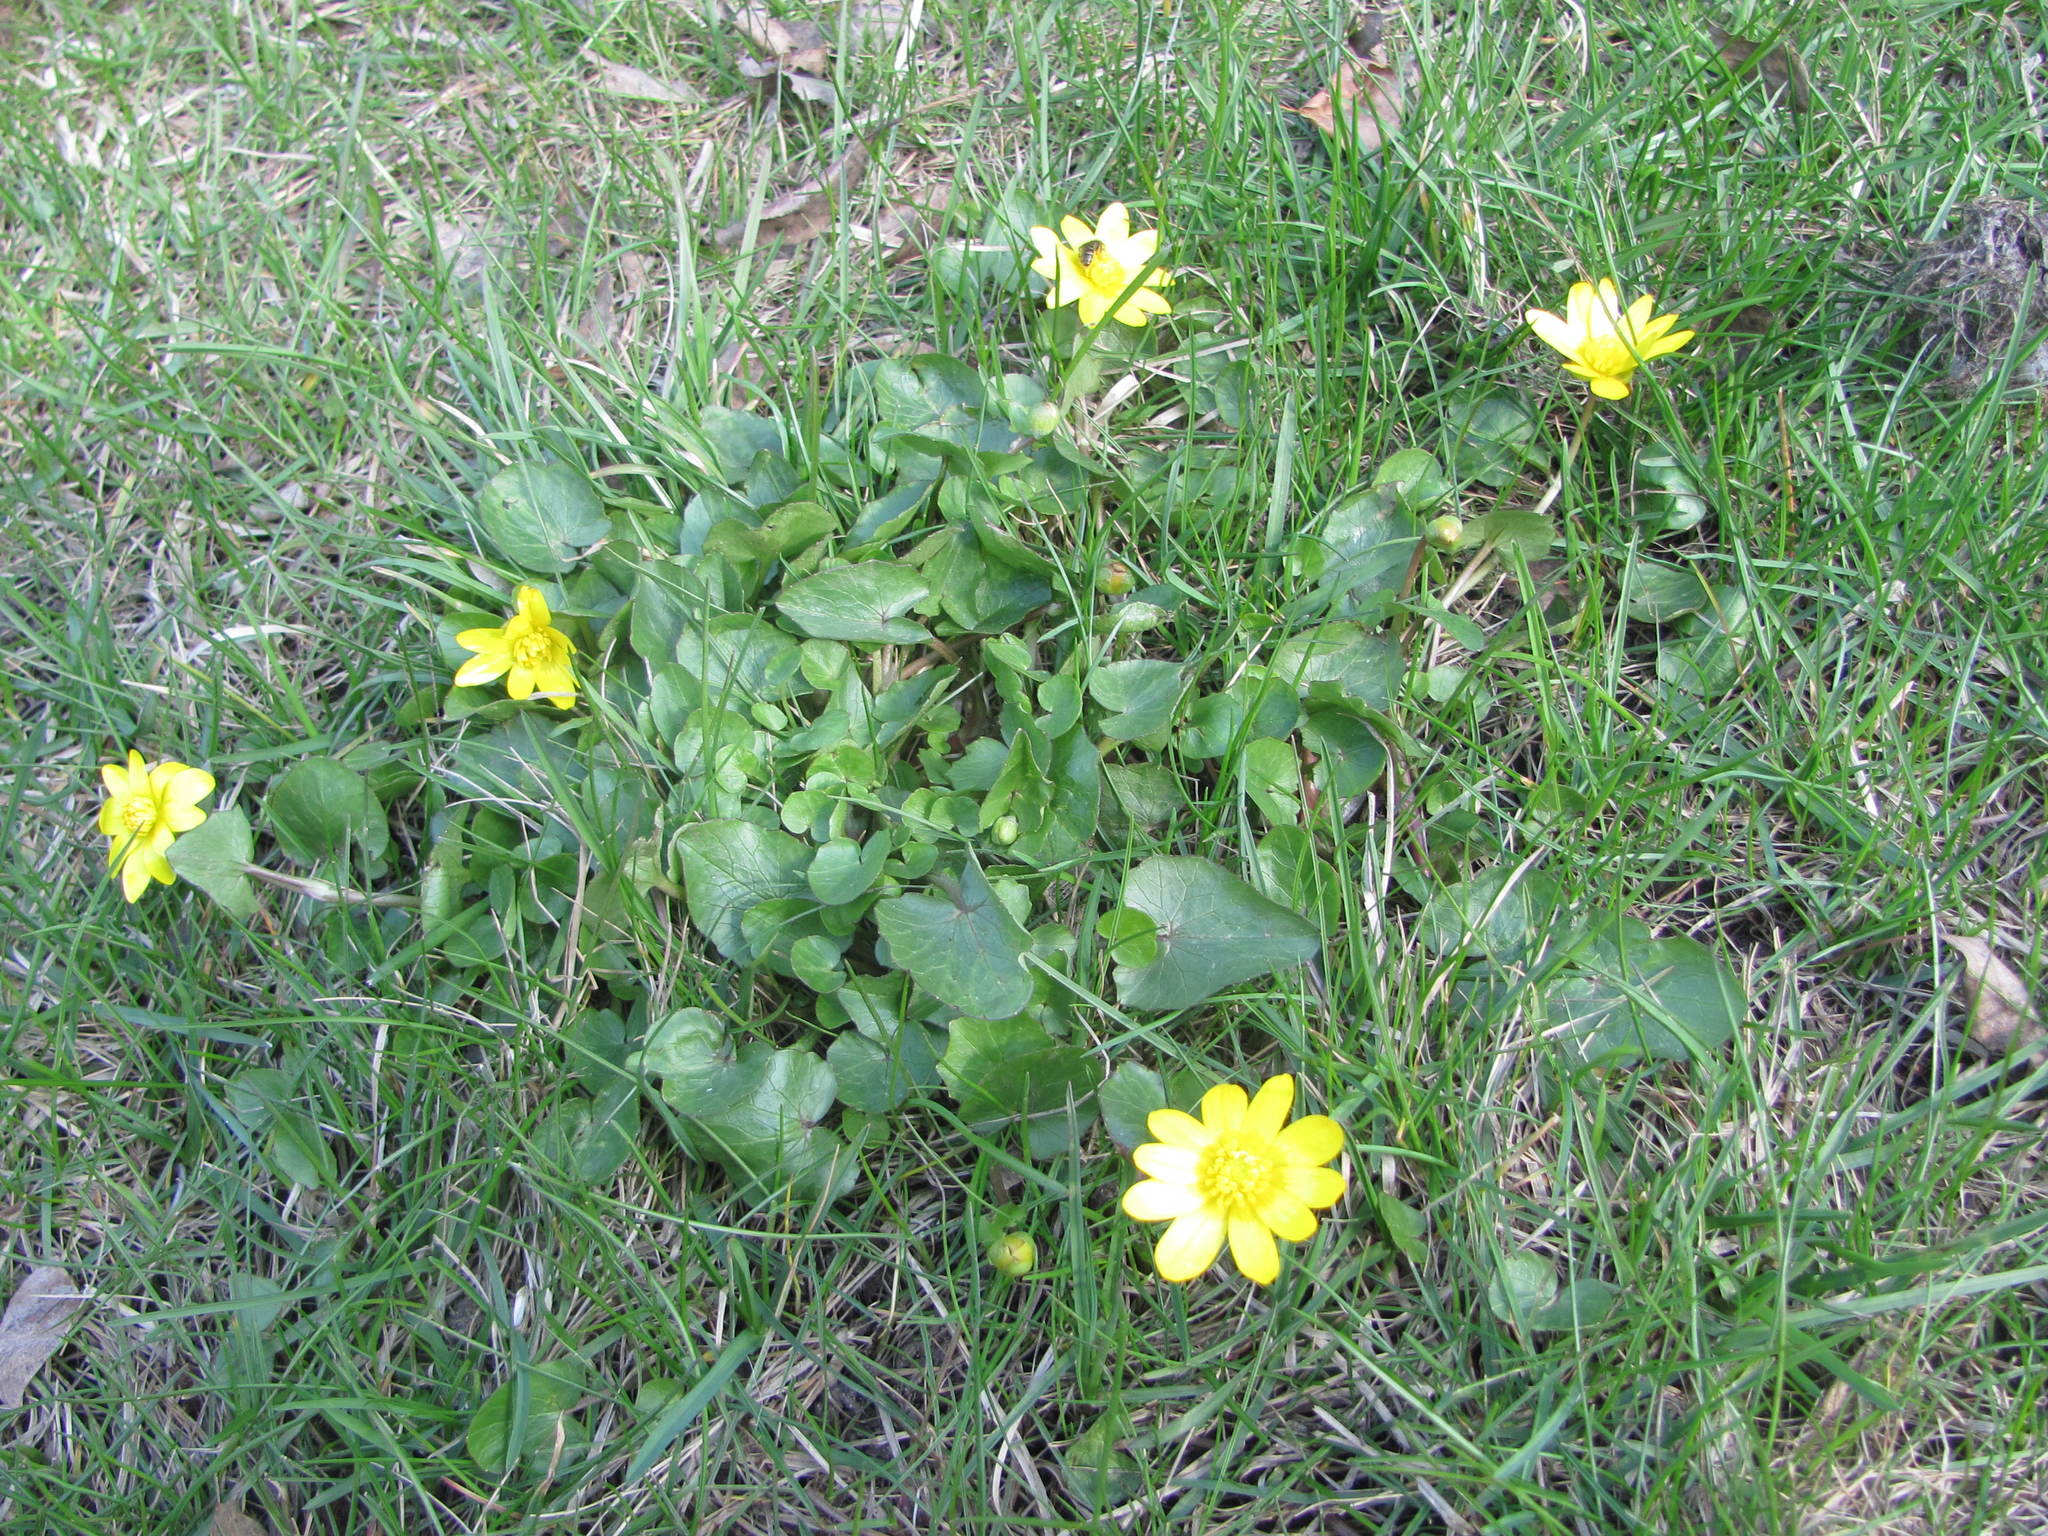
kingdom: Plantae
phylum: Tracheophyta
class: Magnoliopsida
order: Ranunculales
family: Ranunculaceae
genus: Ficaria
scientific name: Ficaria verna
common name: Lesser celandine
